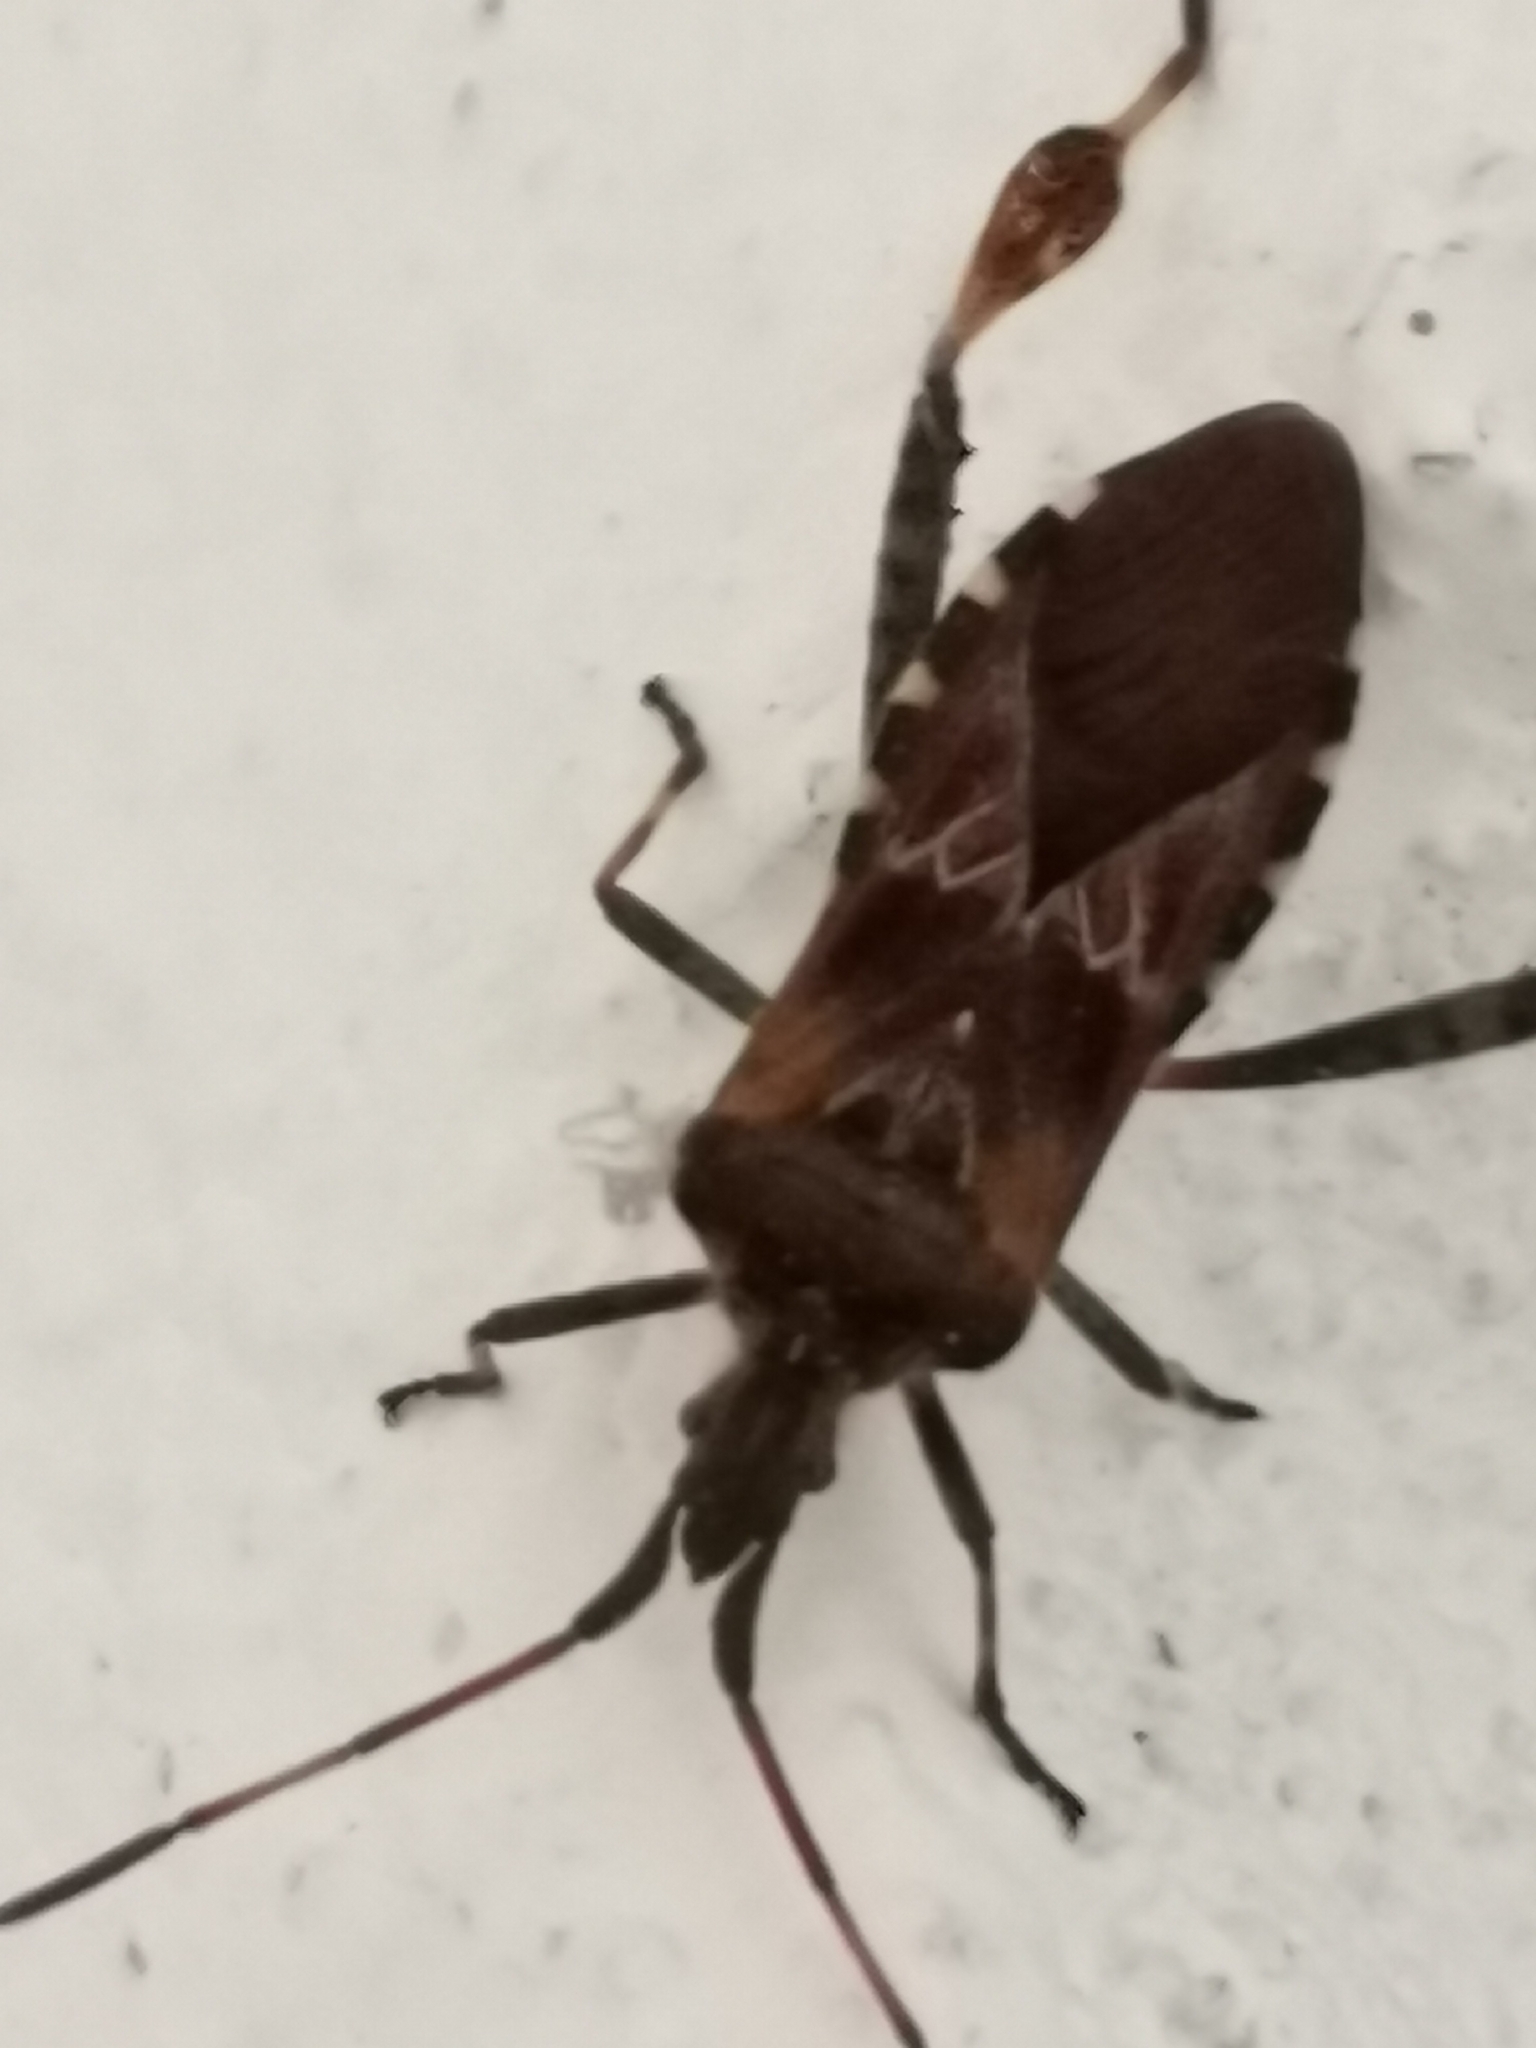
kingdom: Animalia
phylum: Arthropoda
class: Insecta
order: Hemiptera
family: Coreidae
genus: Leptoglossus
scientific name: Leptoglossus occidentalis
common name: Western conifer-seed bug
